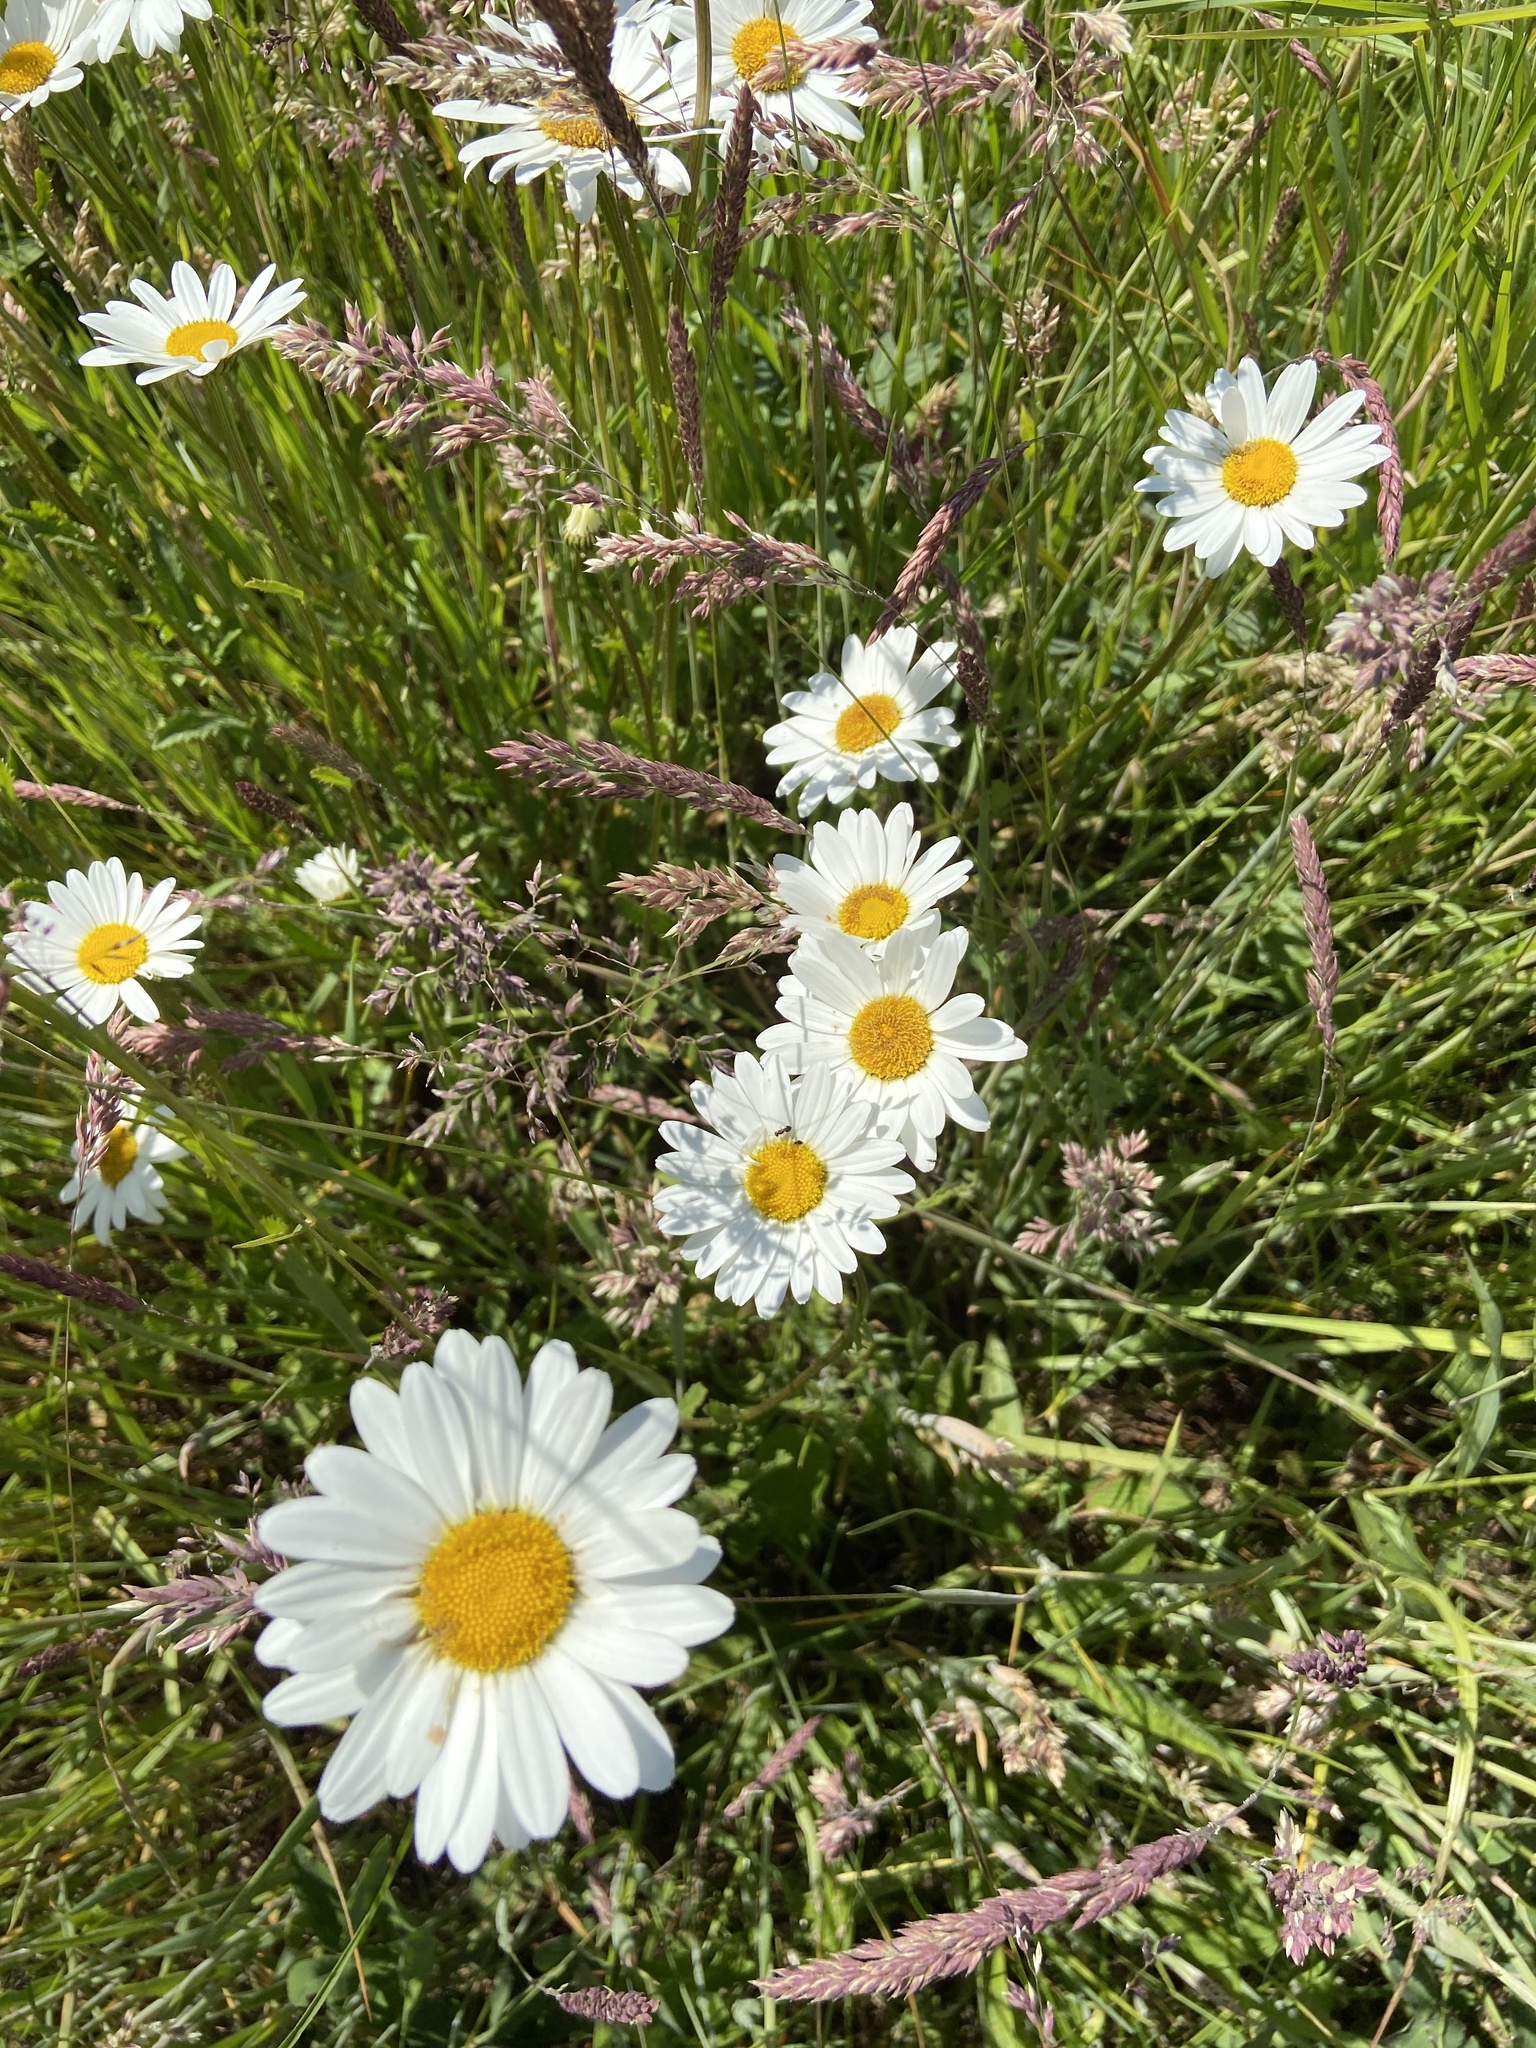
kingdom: Plantae
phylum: Tracheophyta
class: Magnoliopsida
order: Asterales
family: Asteraceae
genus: Leucanthemum
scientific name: Leucanthemum vulgare
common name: Oxeye daisy
